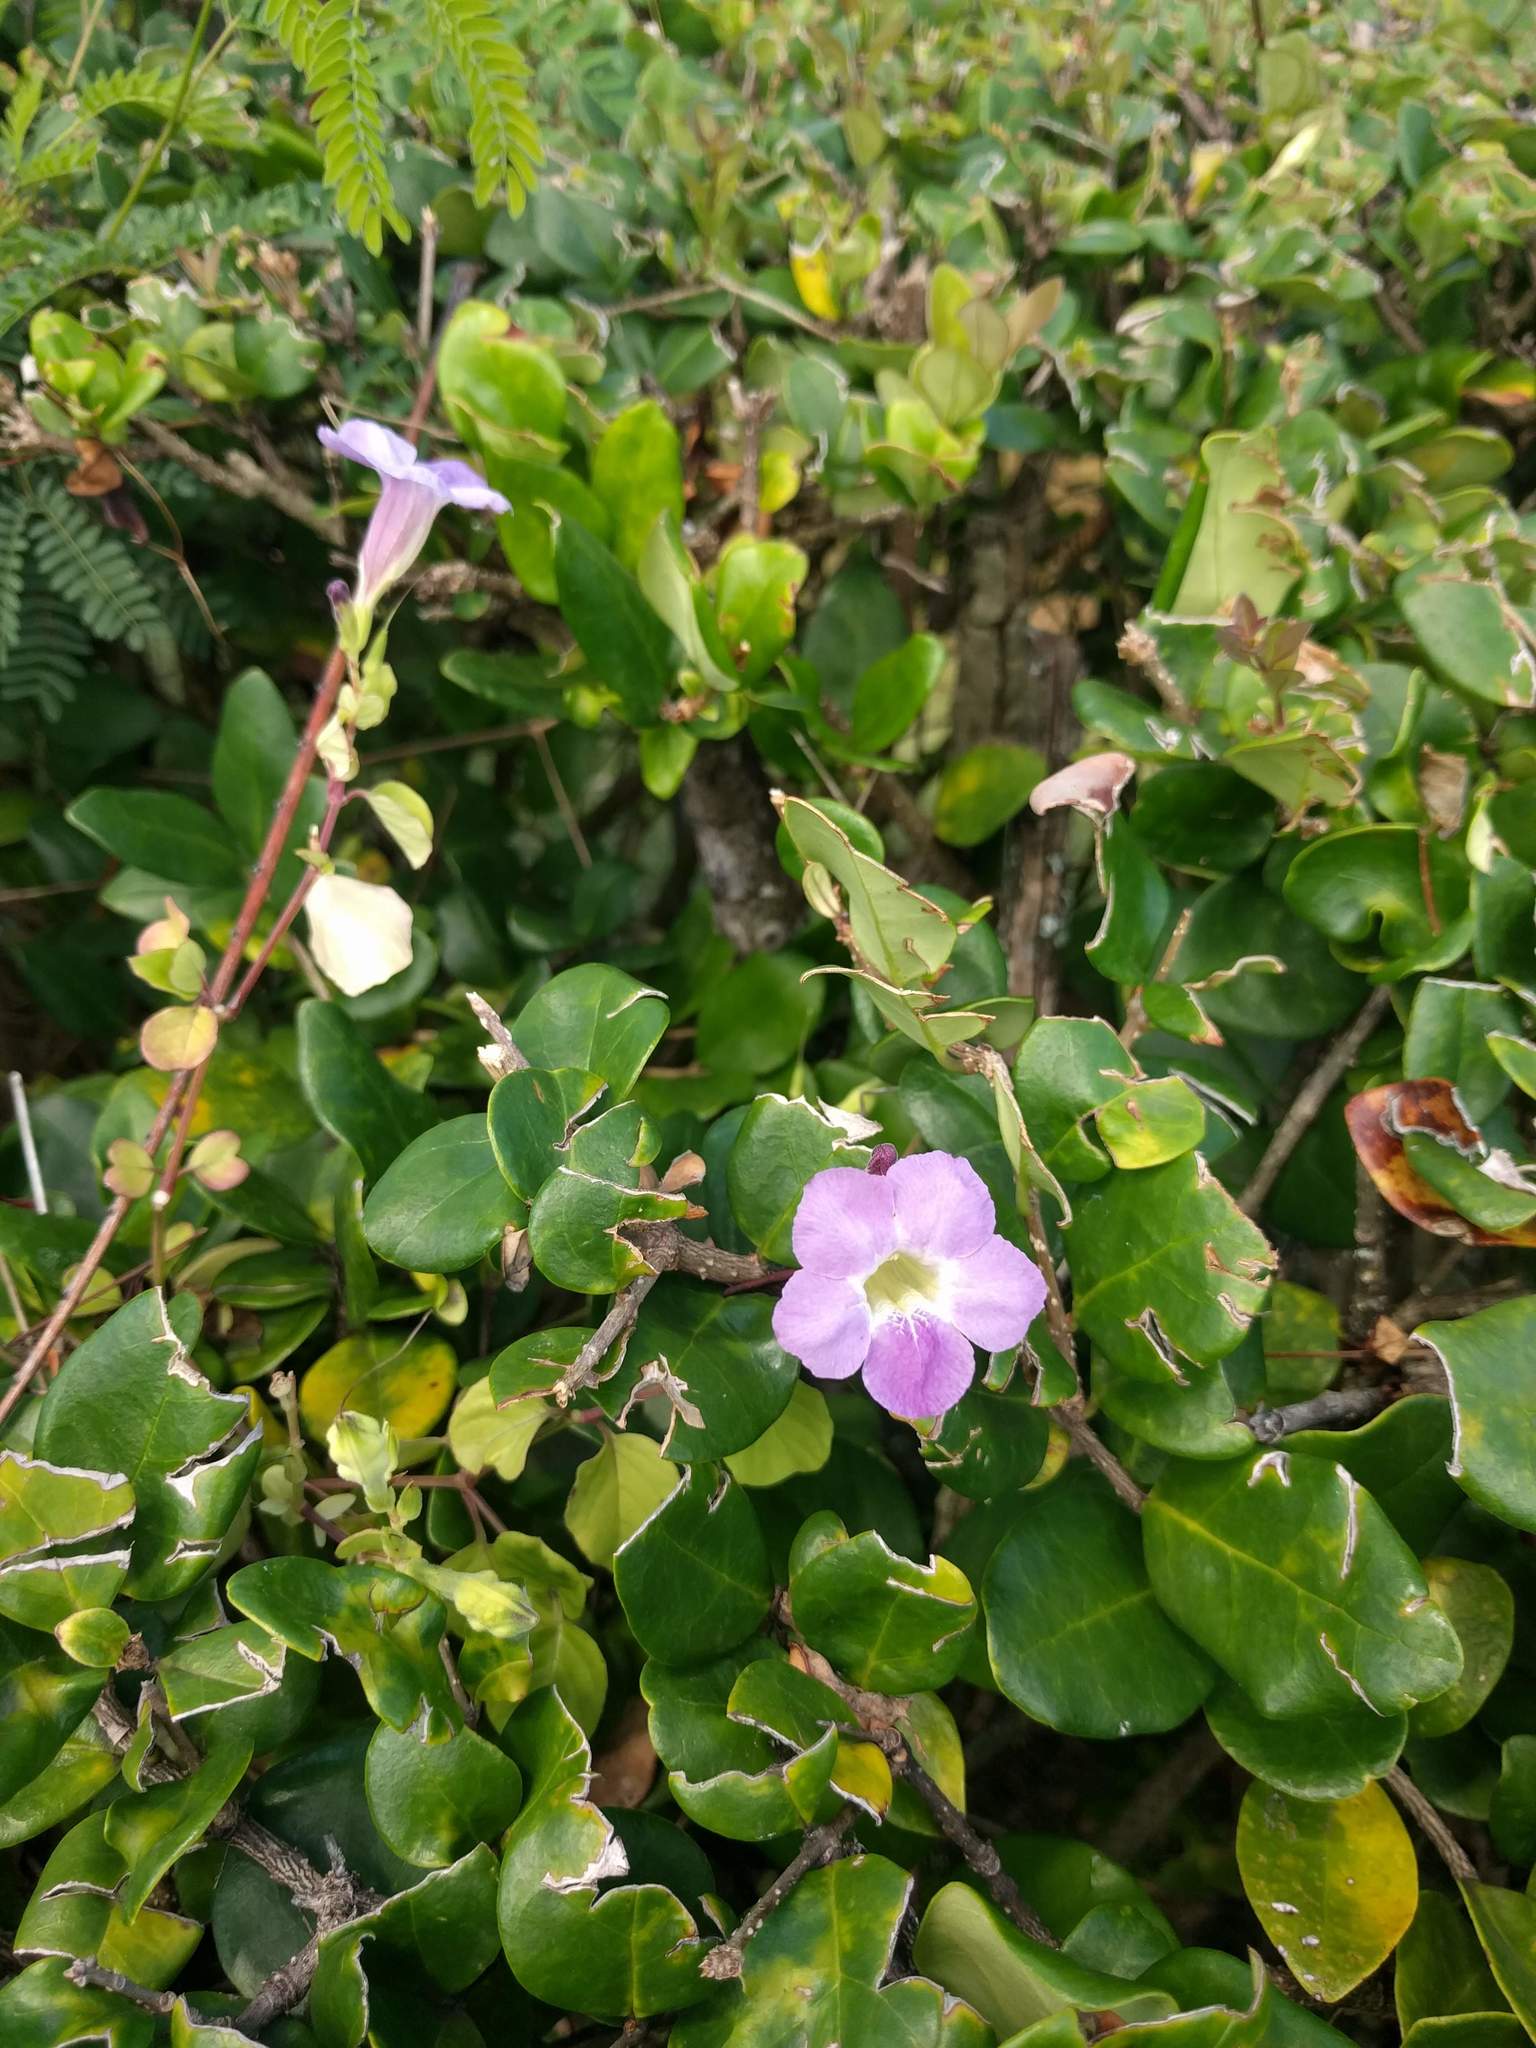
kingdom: Plantae
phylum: Tracheophyta
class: Magnoliopsida
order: Lamiales
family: Acanthaceae
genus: Asystasia
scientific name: Asystasia gangetica
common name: Chinese violet
